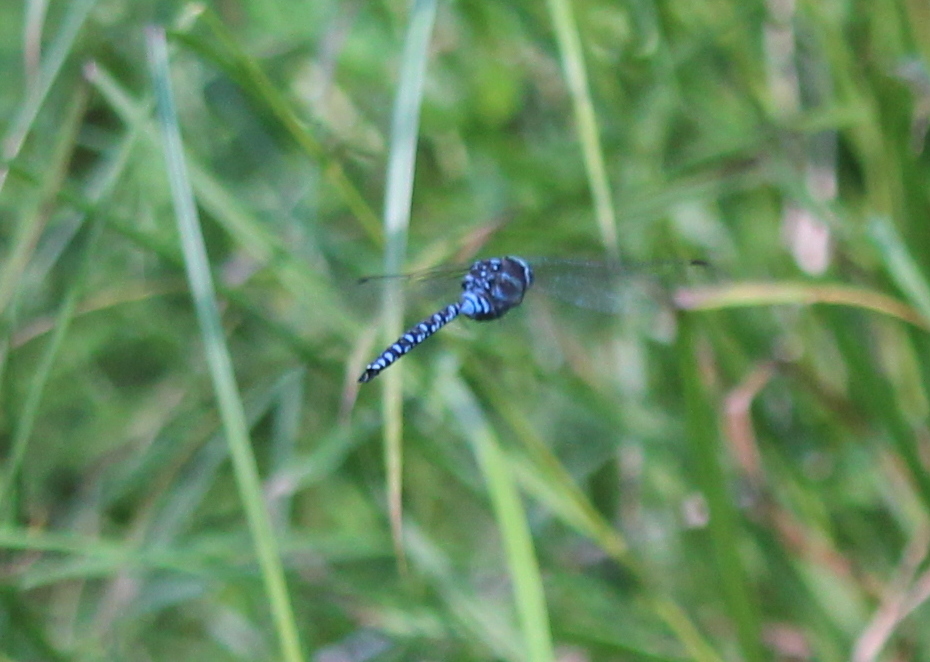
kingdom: Animalia
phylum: Arthropoda
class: Insecta
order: Odonata
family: Aeshnidae
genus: Aeshna
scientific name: Aeshna canadensis
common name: Canada darner
